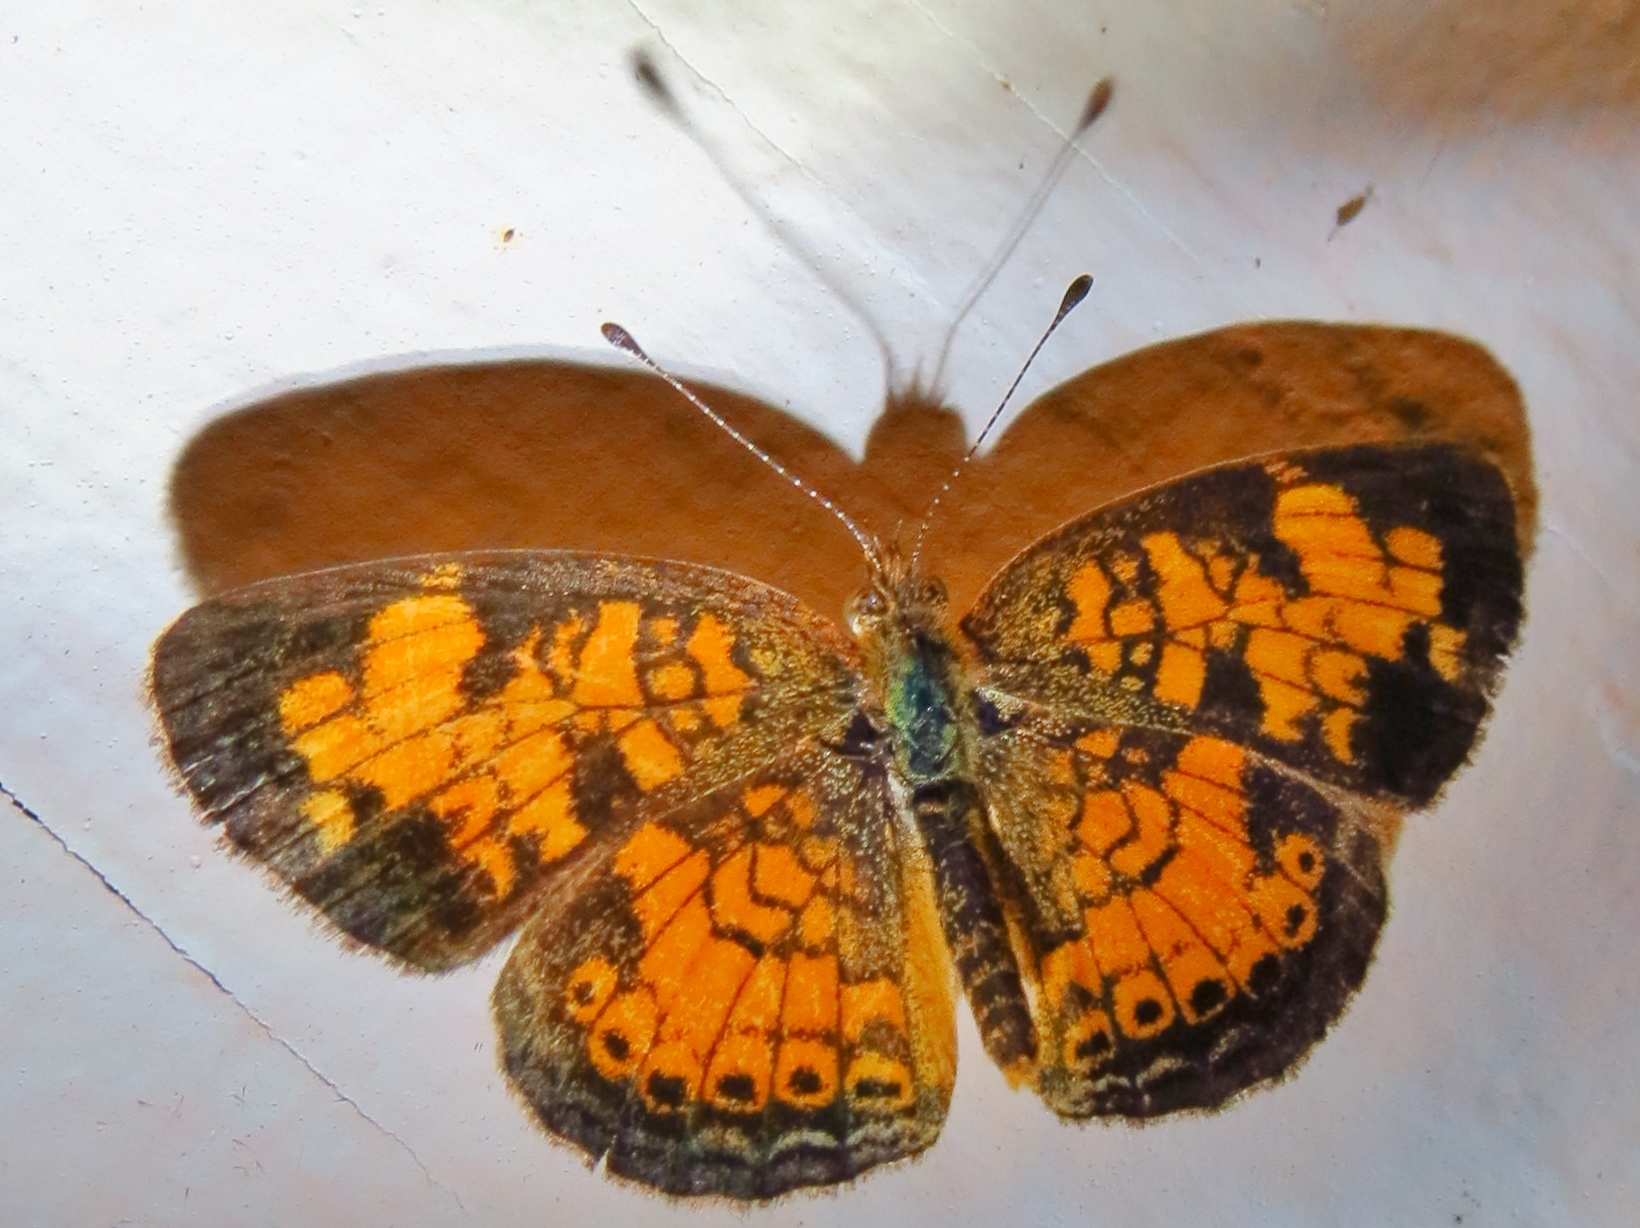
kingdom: Animalia
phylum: Arthropoda
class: Insecta
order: Lepidoptera
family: Nymphalidae
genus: Phyciodes
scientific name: Phyciodes tharos
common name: Pearl crescent
